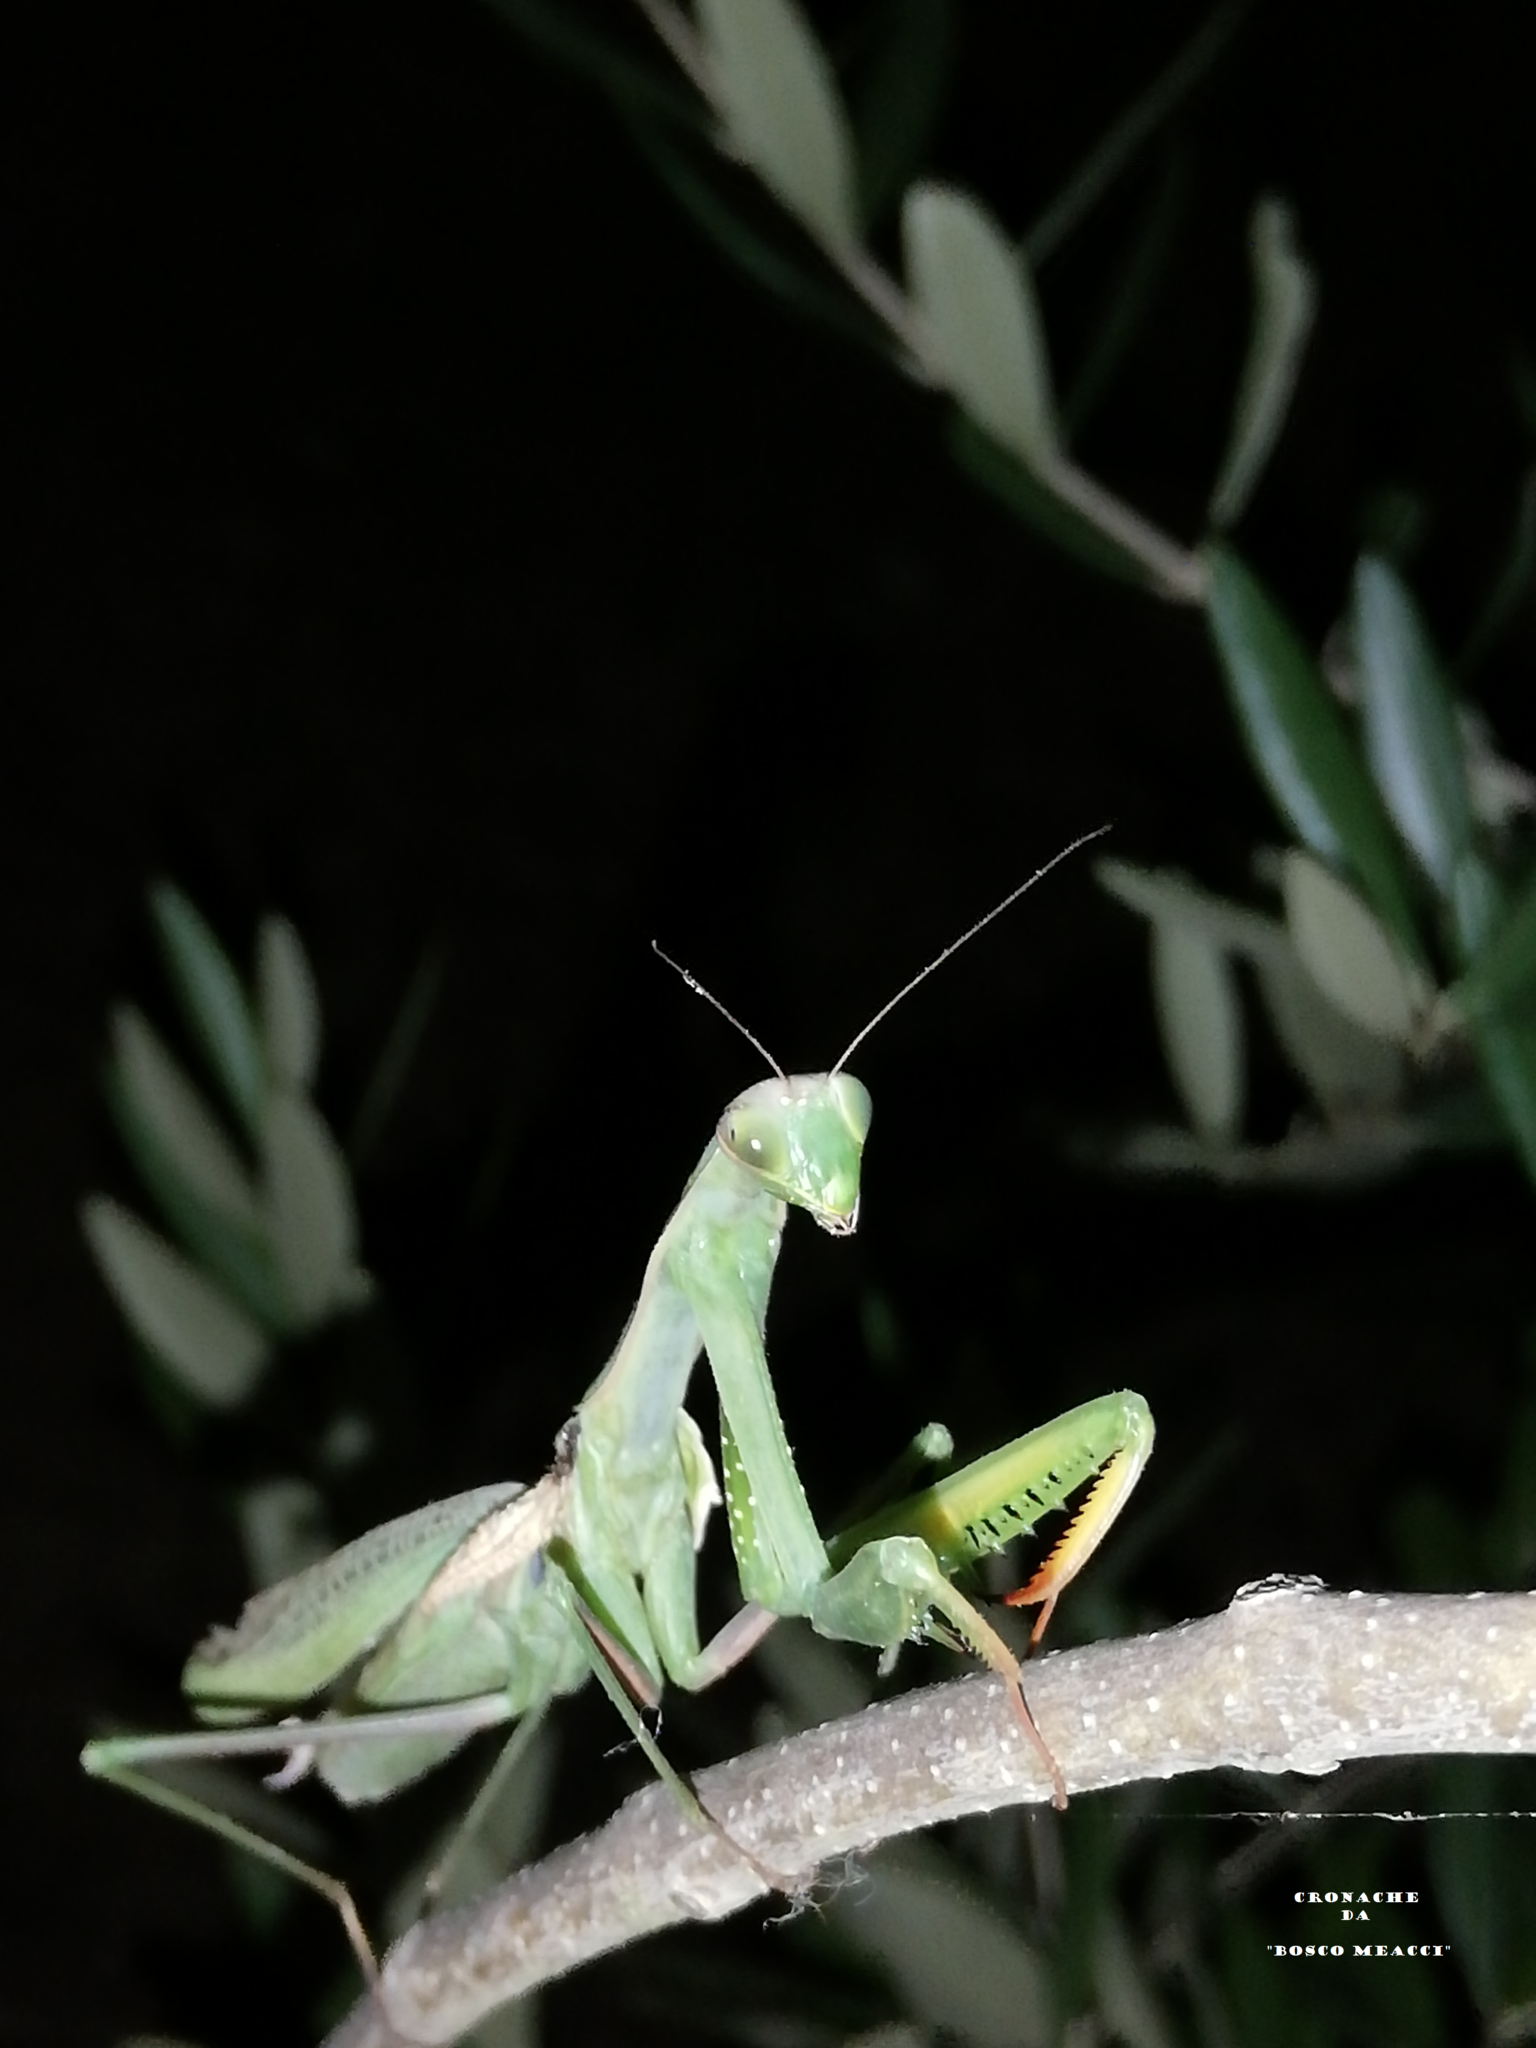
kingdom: Animalia
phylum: Arthropoda
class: Insecta
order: Mantodea
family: Mantidae
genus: Mantis
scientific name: Mantis religiosa
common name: Praying mantis
